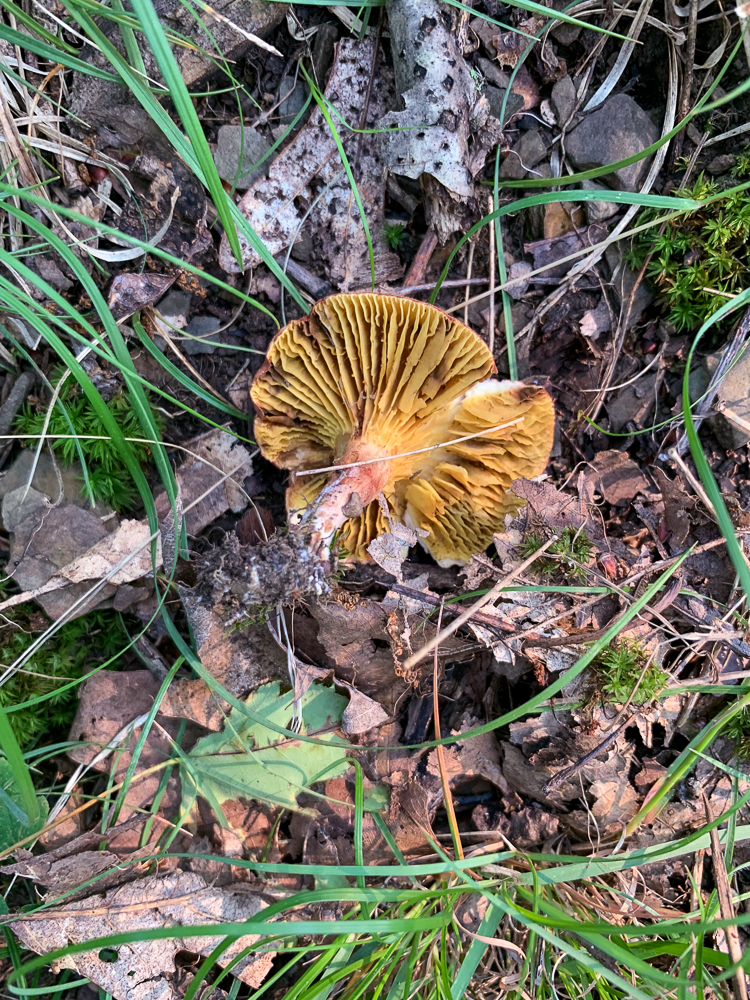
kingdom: Fungi
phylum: Basidiomycota
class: Agaricomycetes
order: Boletales
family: Boletaceae
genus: Phylloporus
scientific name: Phylloporus leucomycelinus
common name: Gilled bolete
